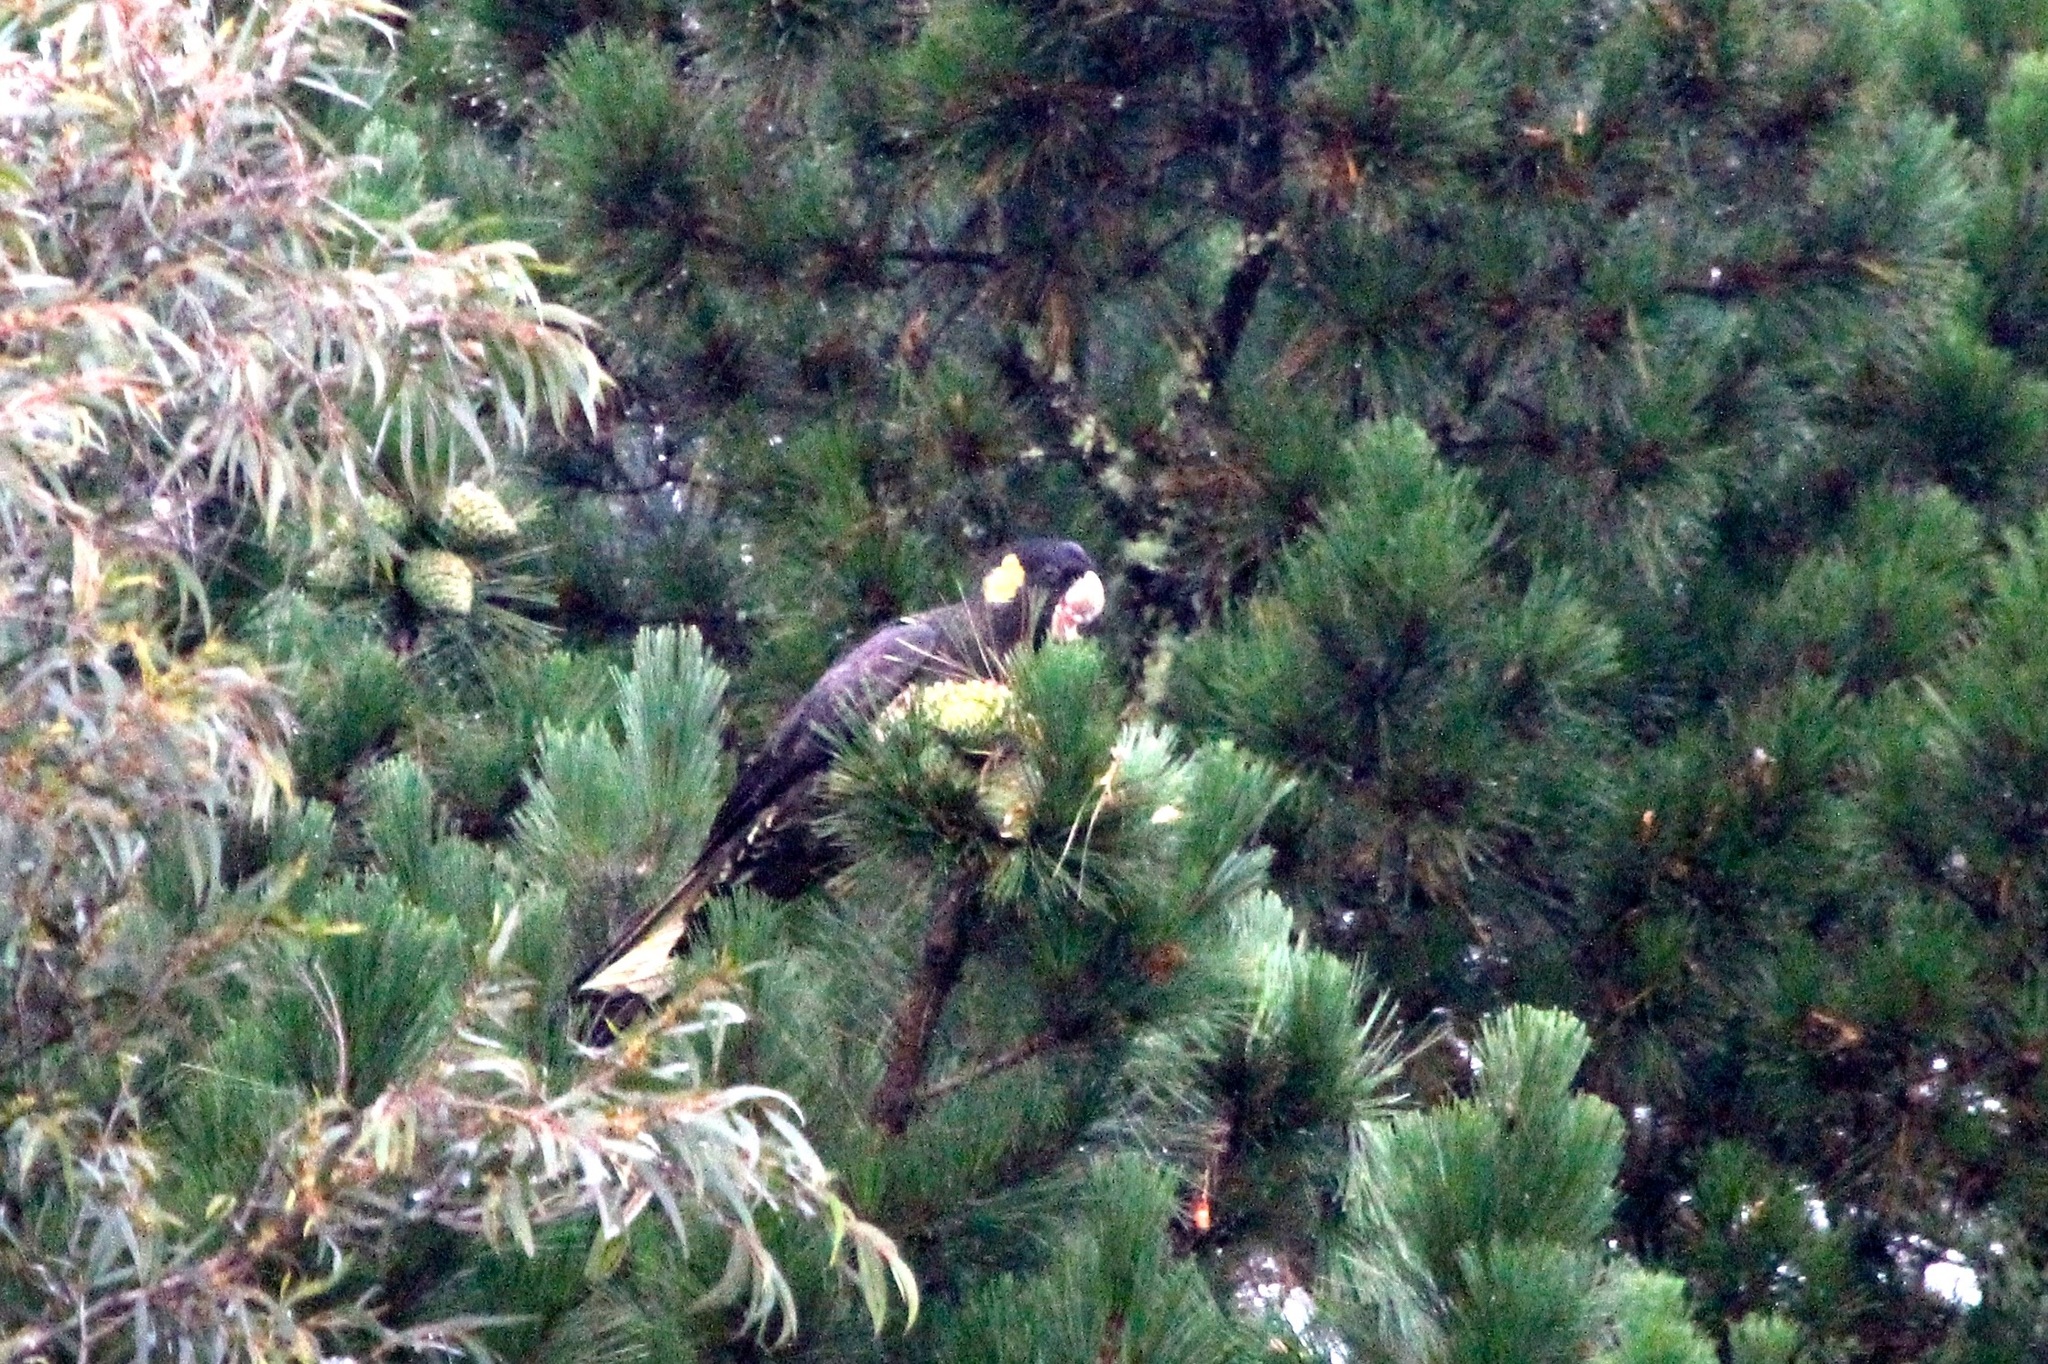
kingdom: Animalia
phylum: Chordata
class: Aves
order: Psittaciformes
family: Cacatuidae
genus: Zanda
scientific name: Zanda funerea
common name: Yellow-tailed black-cockatoo
